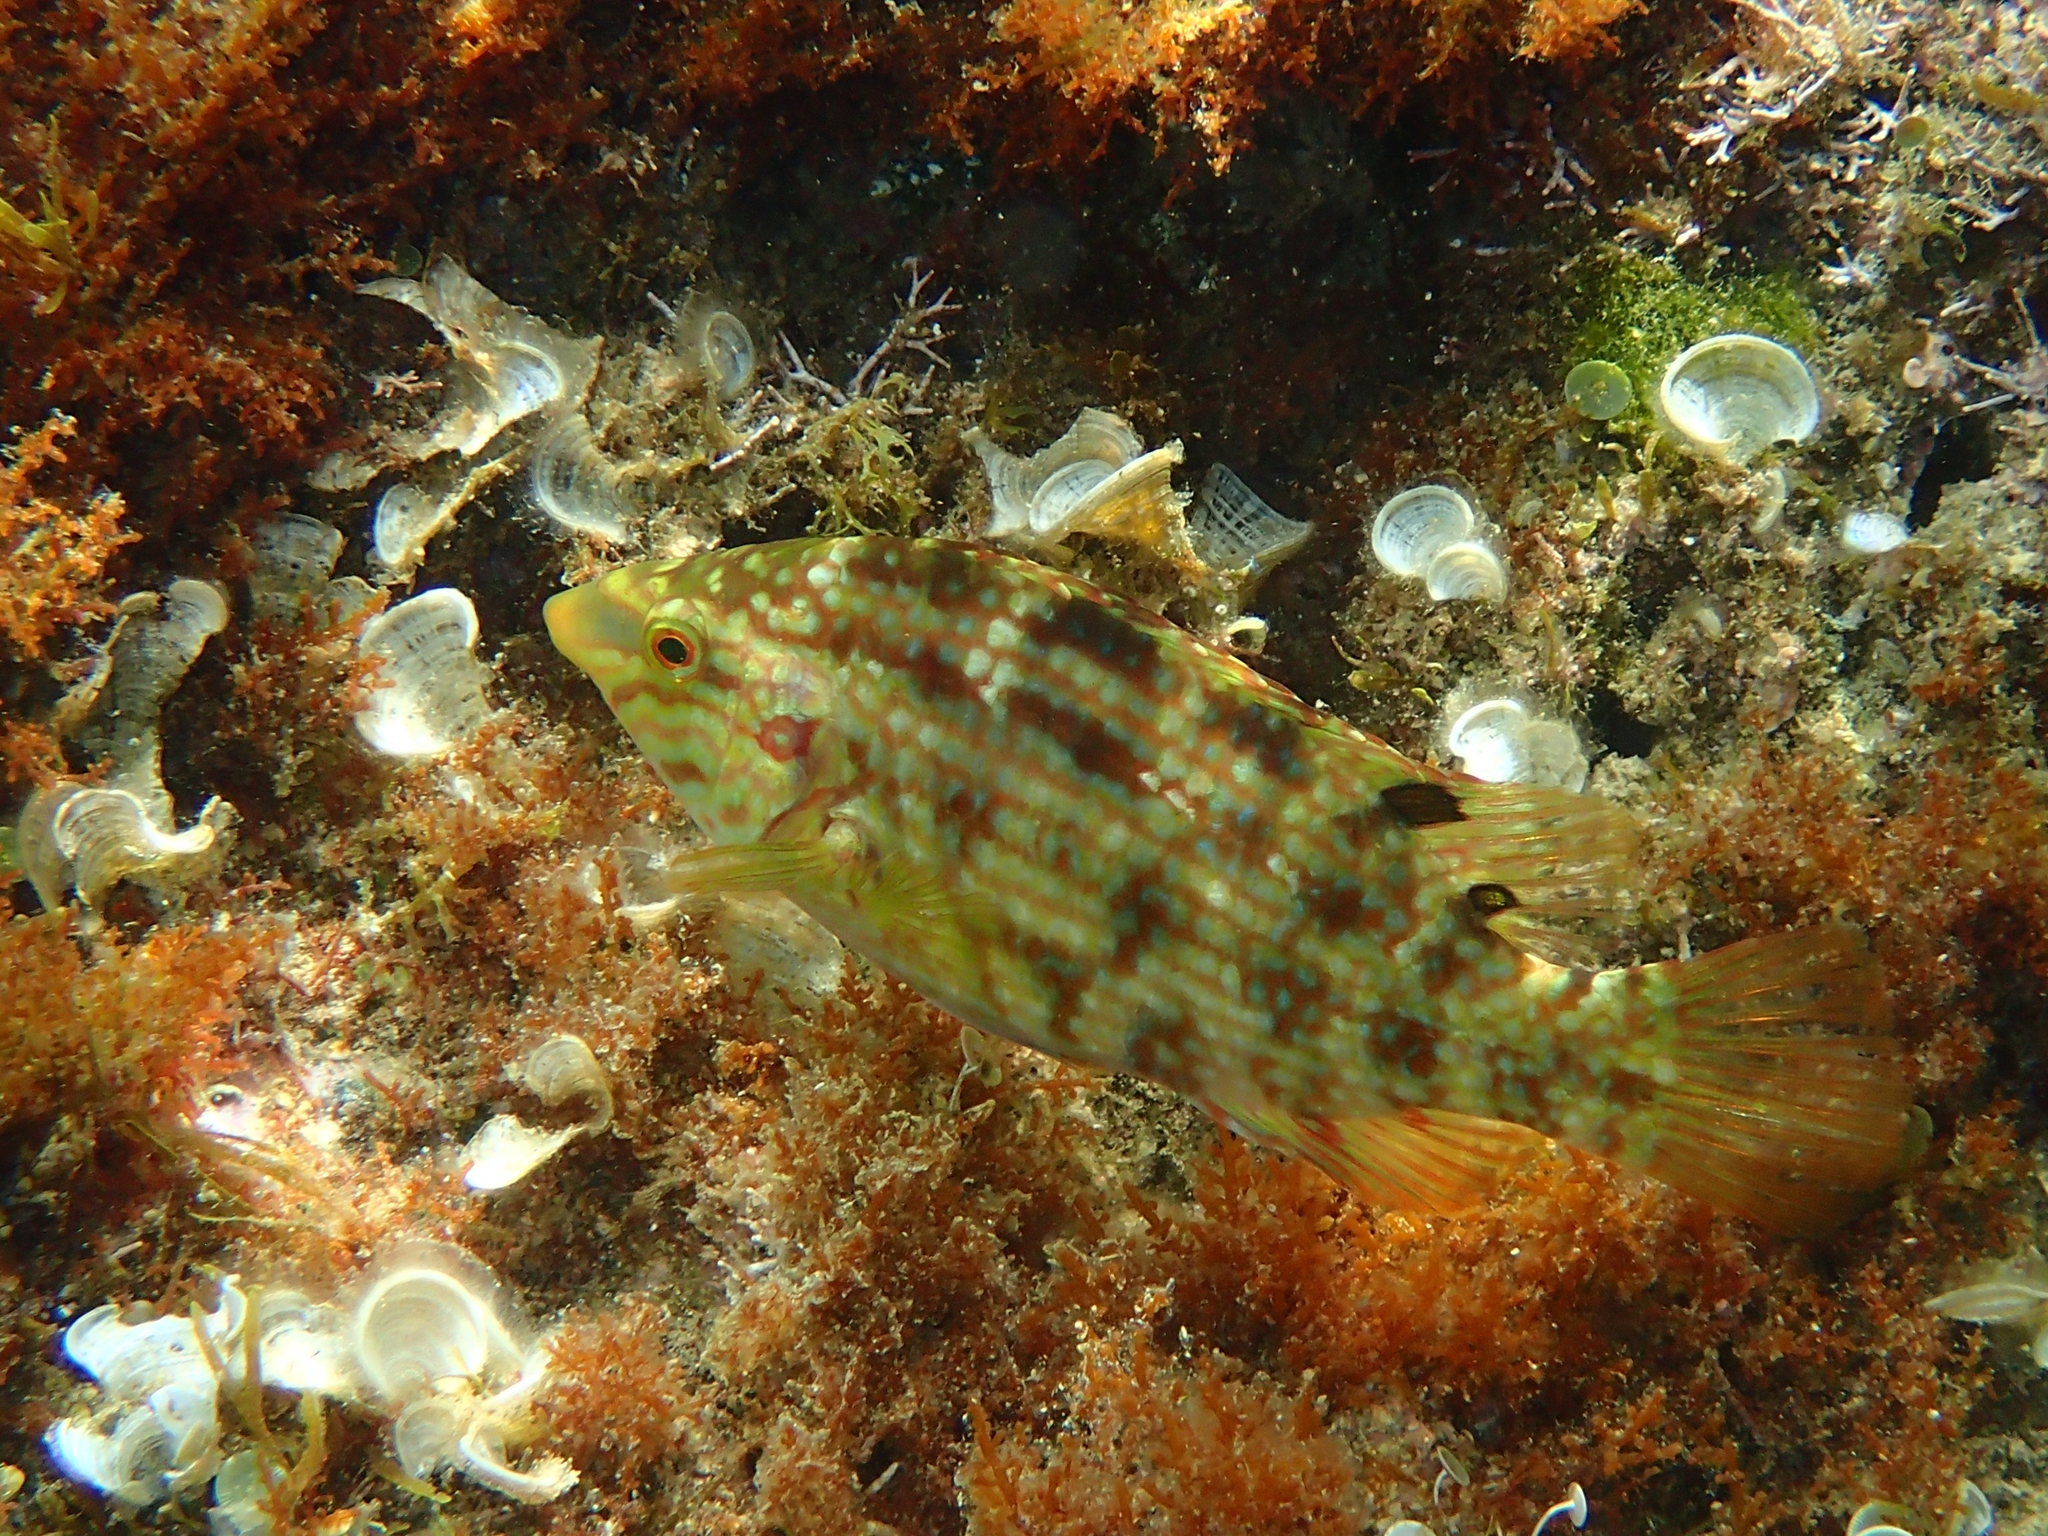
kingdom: Animalia
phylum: Chordata
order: Perciformes
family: Labridae
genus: Symphodus
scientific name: Symphodus roissali
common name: Five-spotted wrasse
